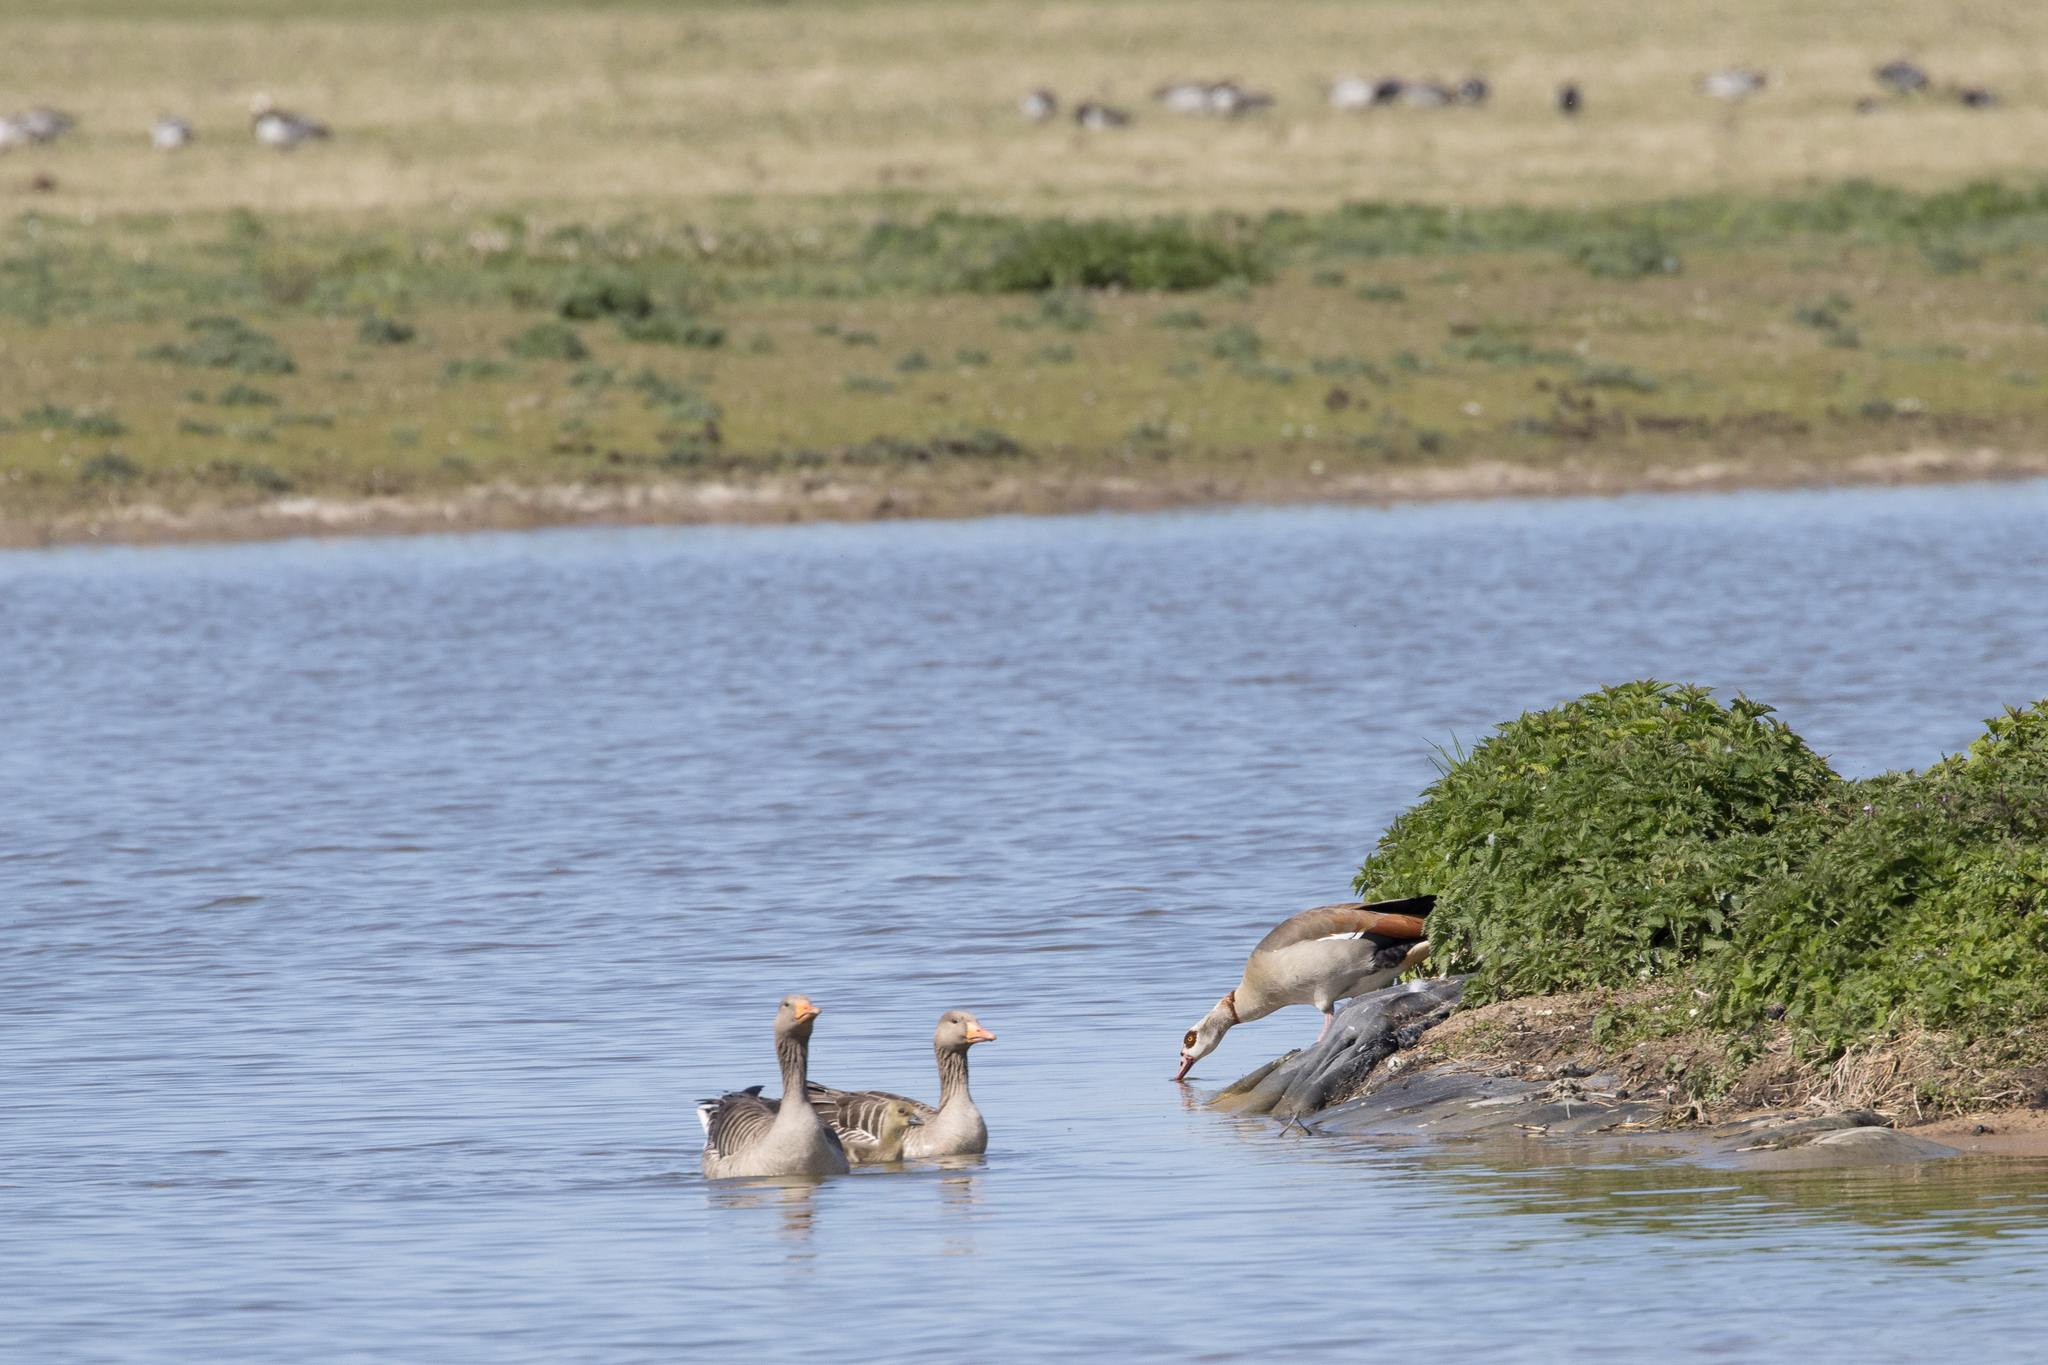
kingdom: Animalia
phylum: Chordata
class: Aves
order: Anseriformes
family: Anatidae
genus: Alopochen
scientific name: Alopochen aegyptiaca
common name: Egyptian goose
